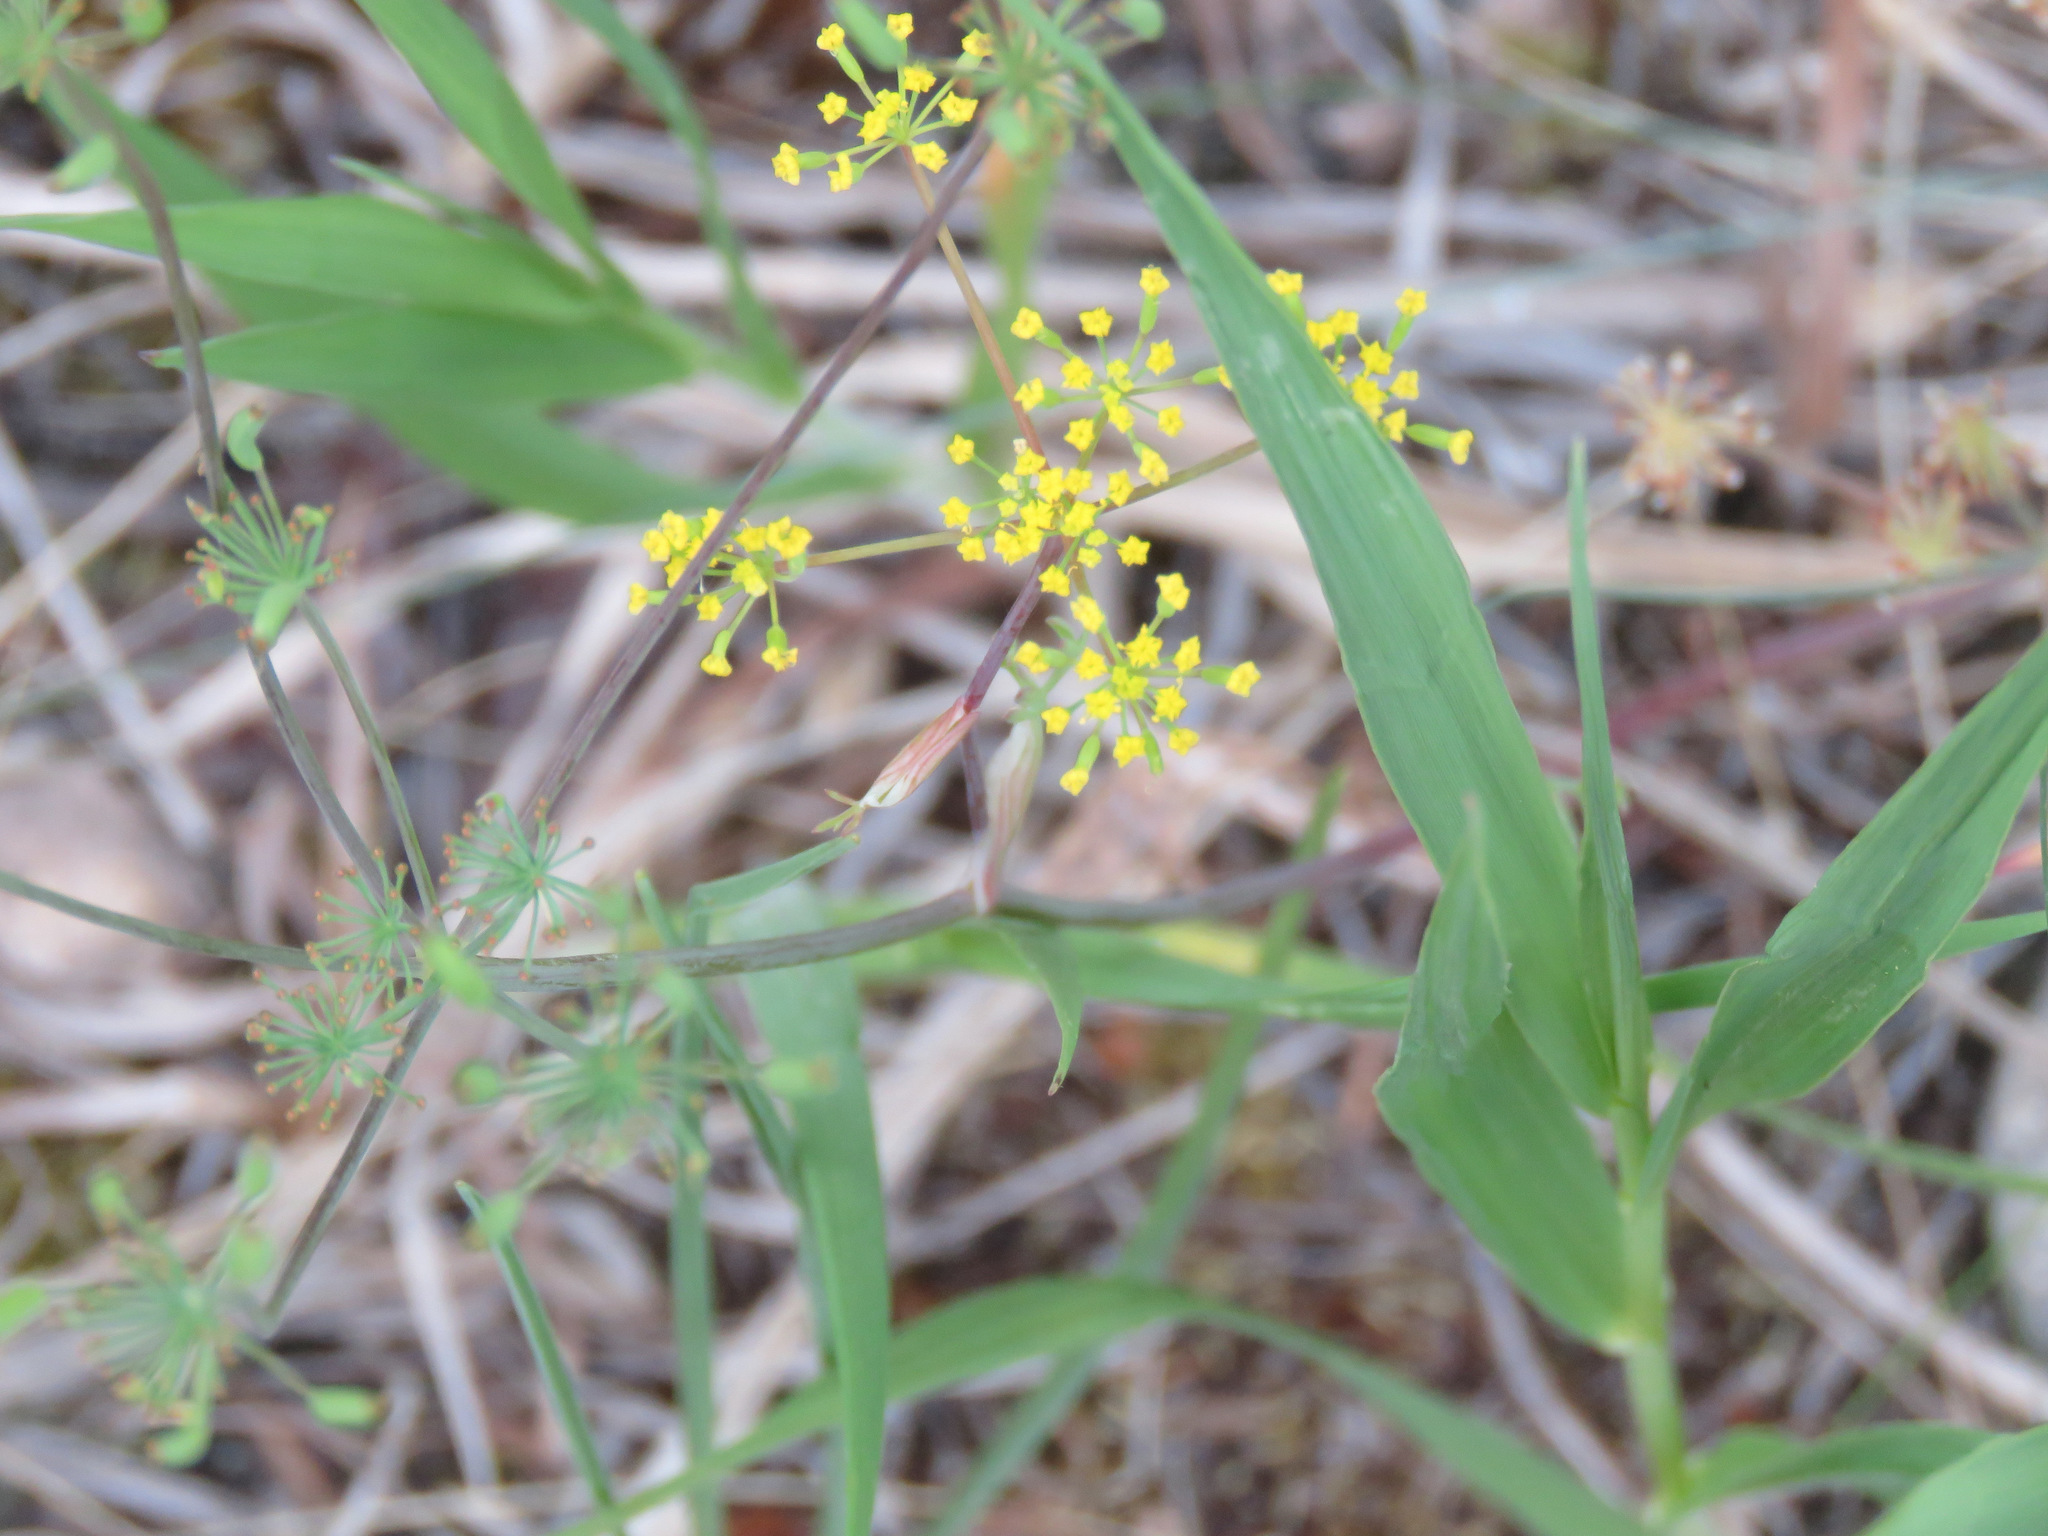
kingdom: Plantae
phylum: Tracheophyta
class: Magnoliopsida
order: Apiales
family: Apiaceae
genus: Lomatium
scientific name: Lomatium ambiguum
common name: Lacy lomatium
